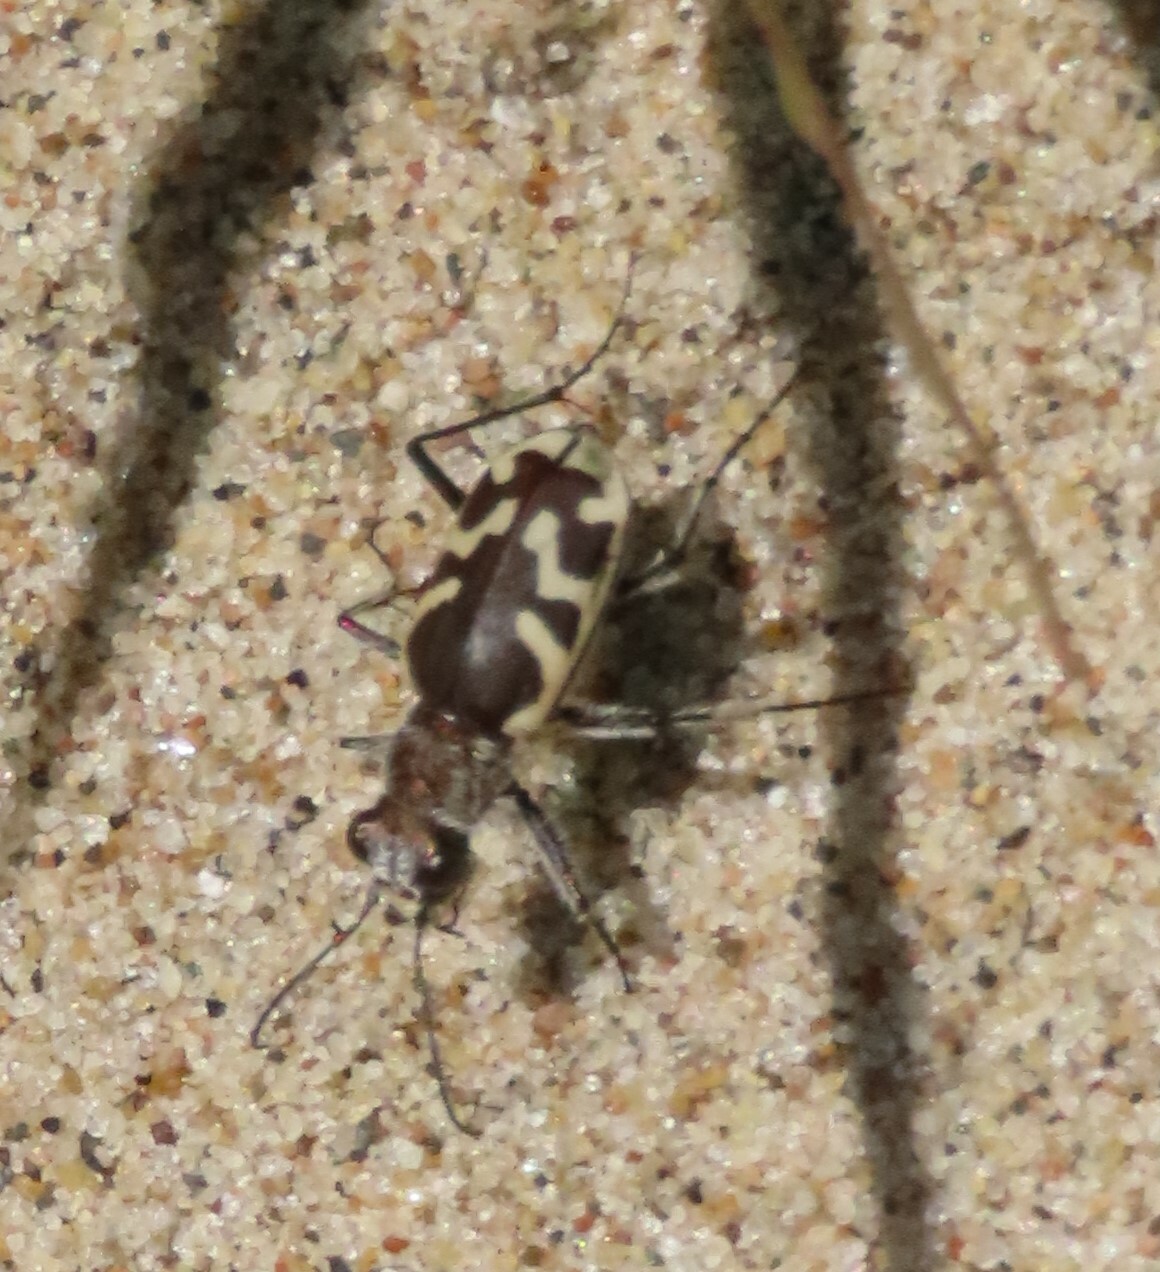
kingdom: Animalia
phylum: Arthropoda
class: Insecta
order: Coleoptera
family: Carabidae
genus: Cicindela
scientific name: Cicindela formosa
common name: Big sand tiger beetle
